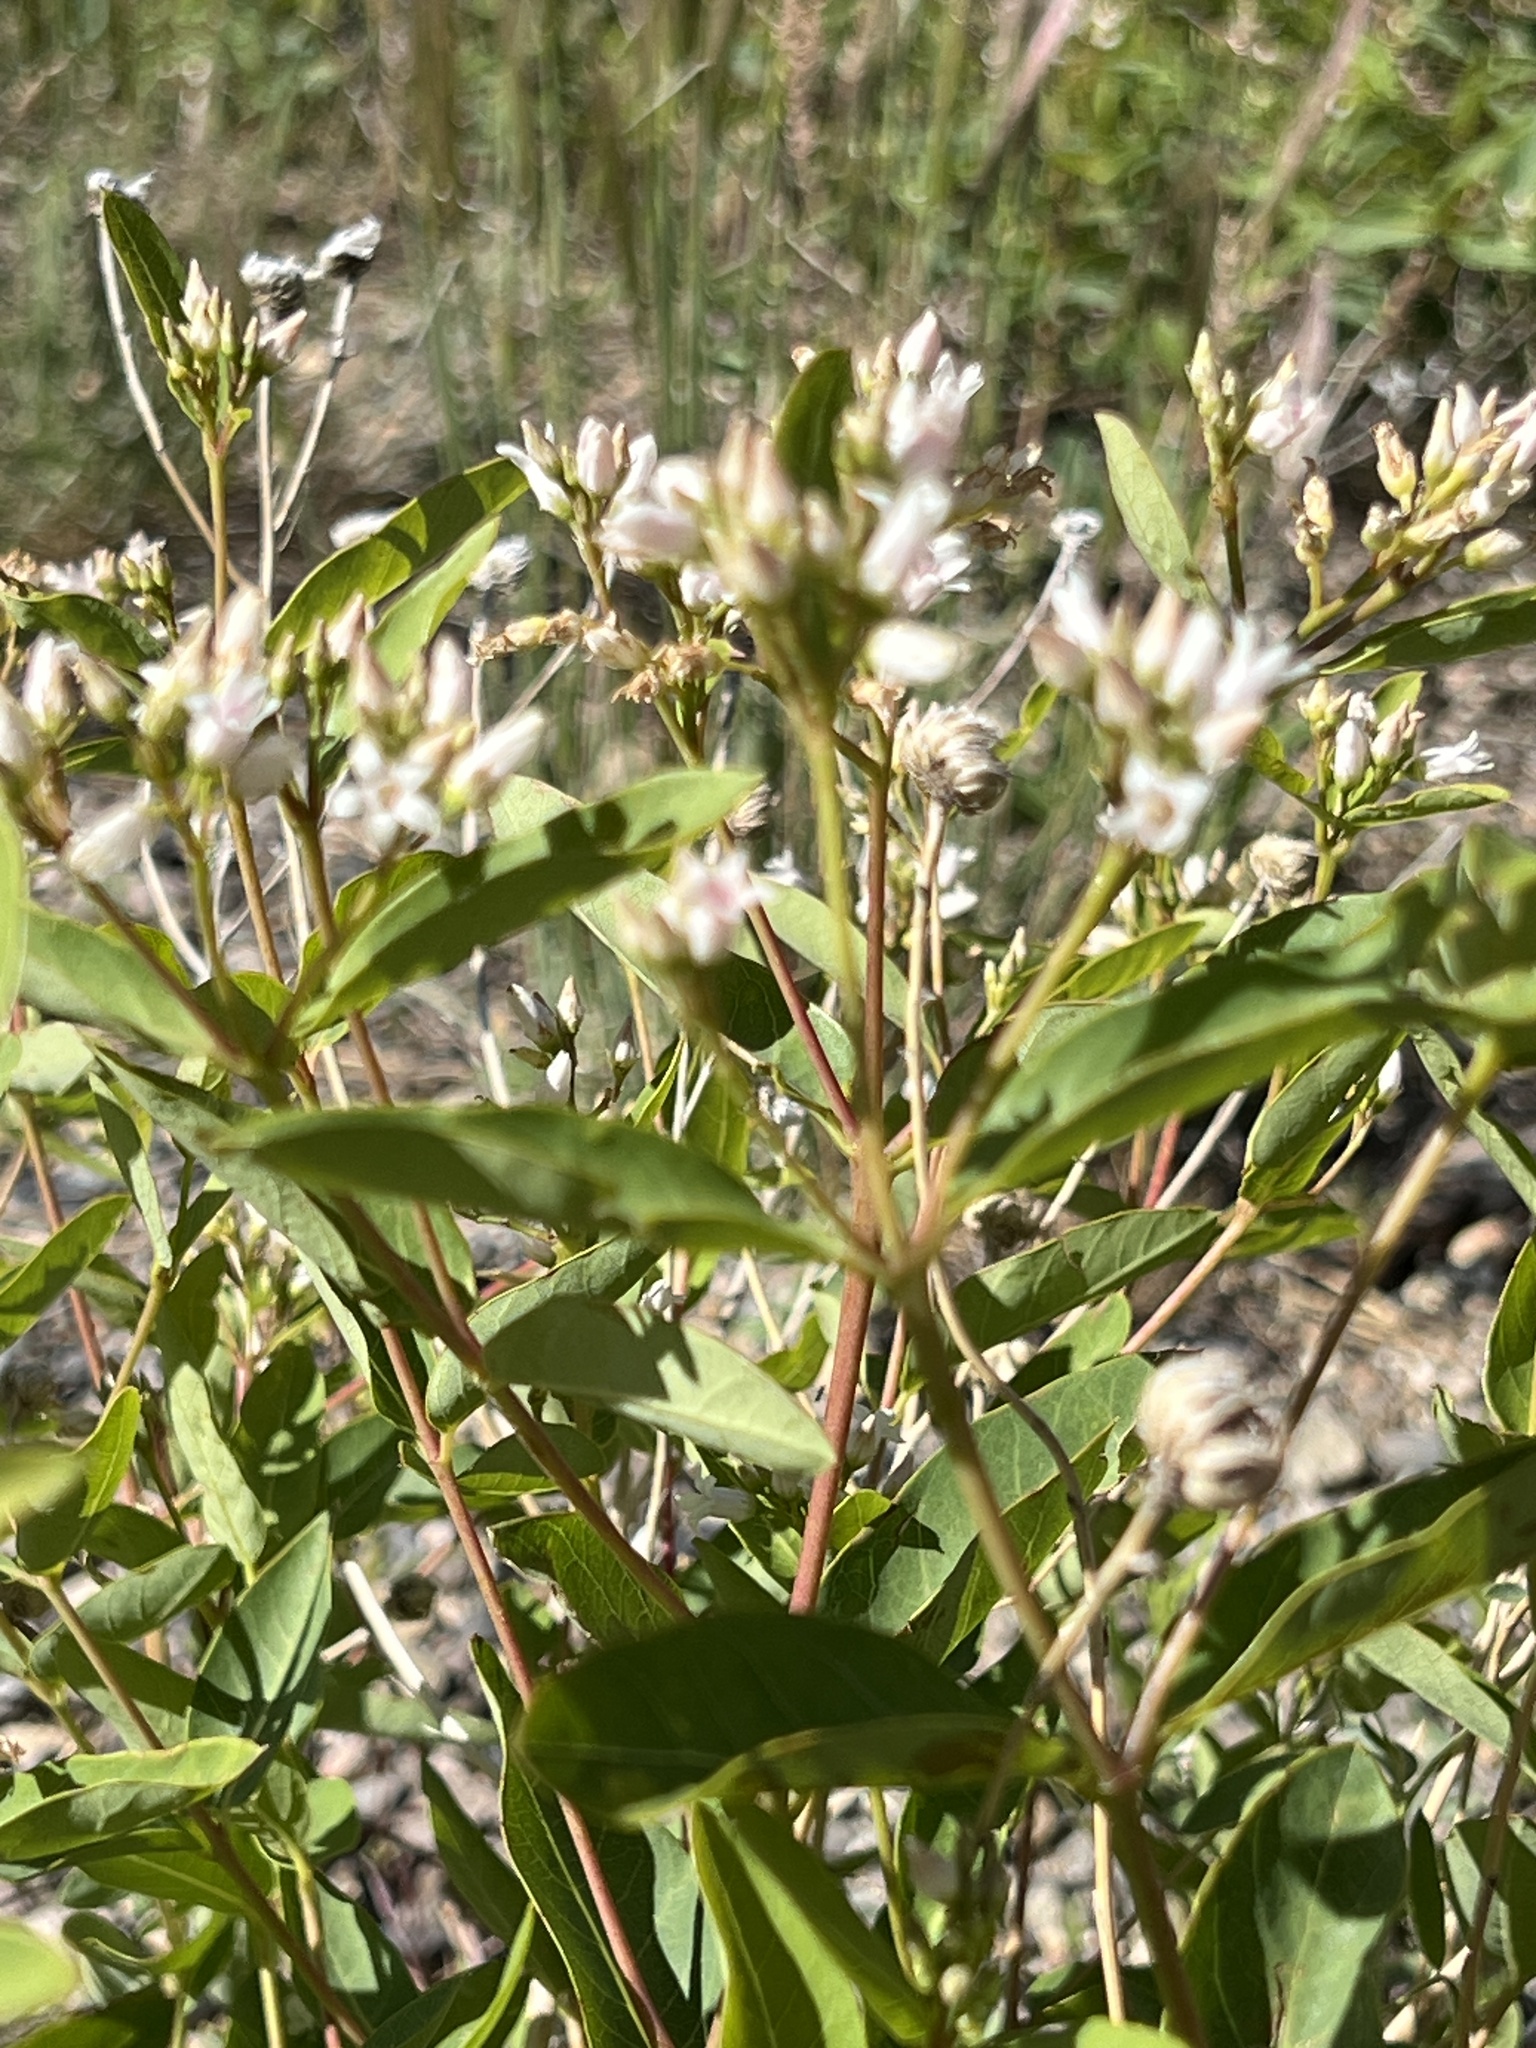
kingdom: Plantae
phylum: Tracheophyta
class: Magnoliopsida
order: Gentianales
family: Apocynaceae
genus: Apocynum
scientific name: Apocynum androsaemifolium
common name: Spreading dogbane
